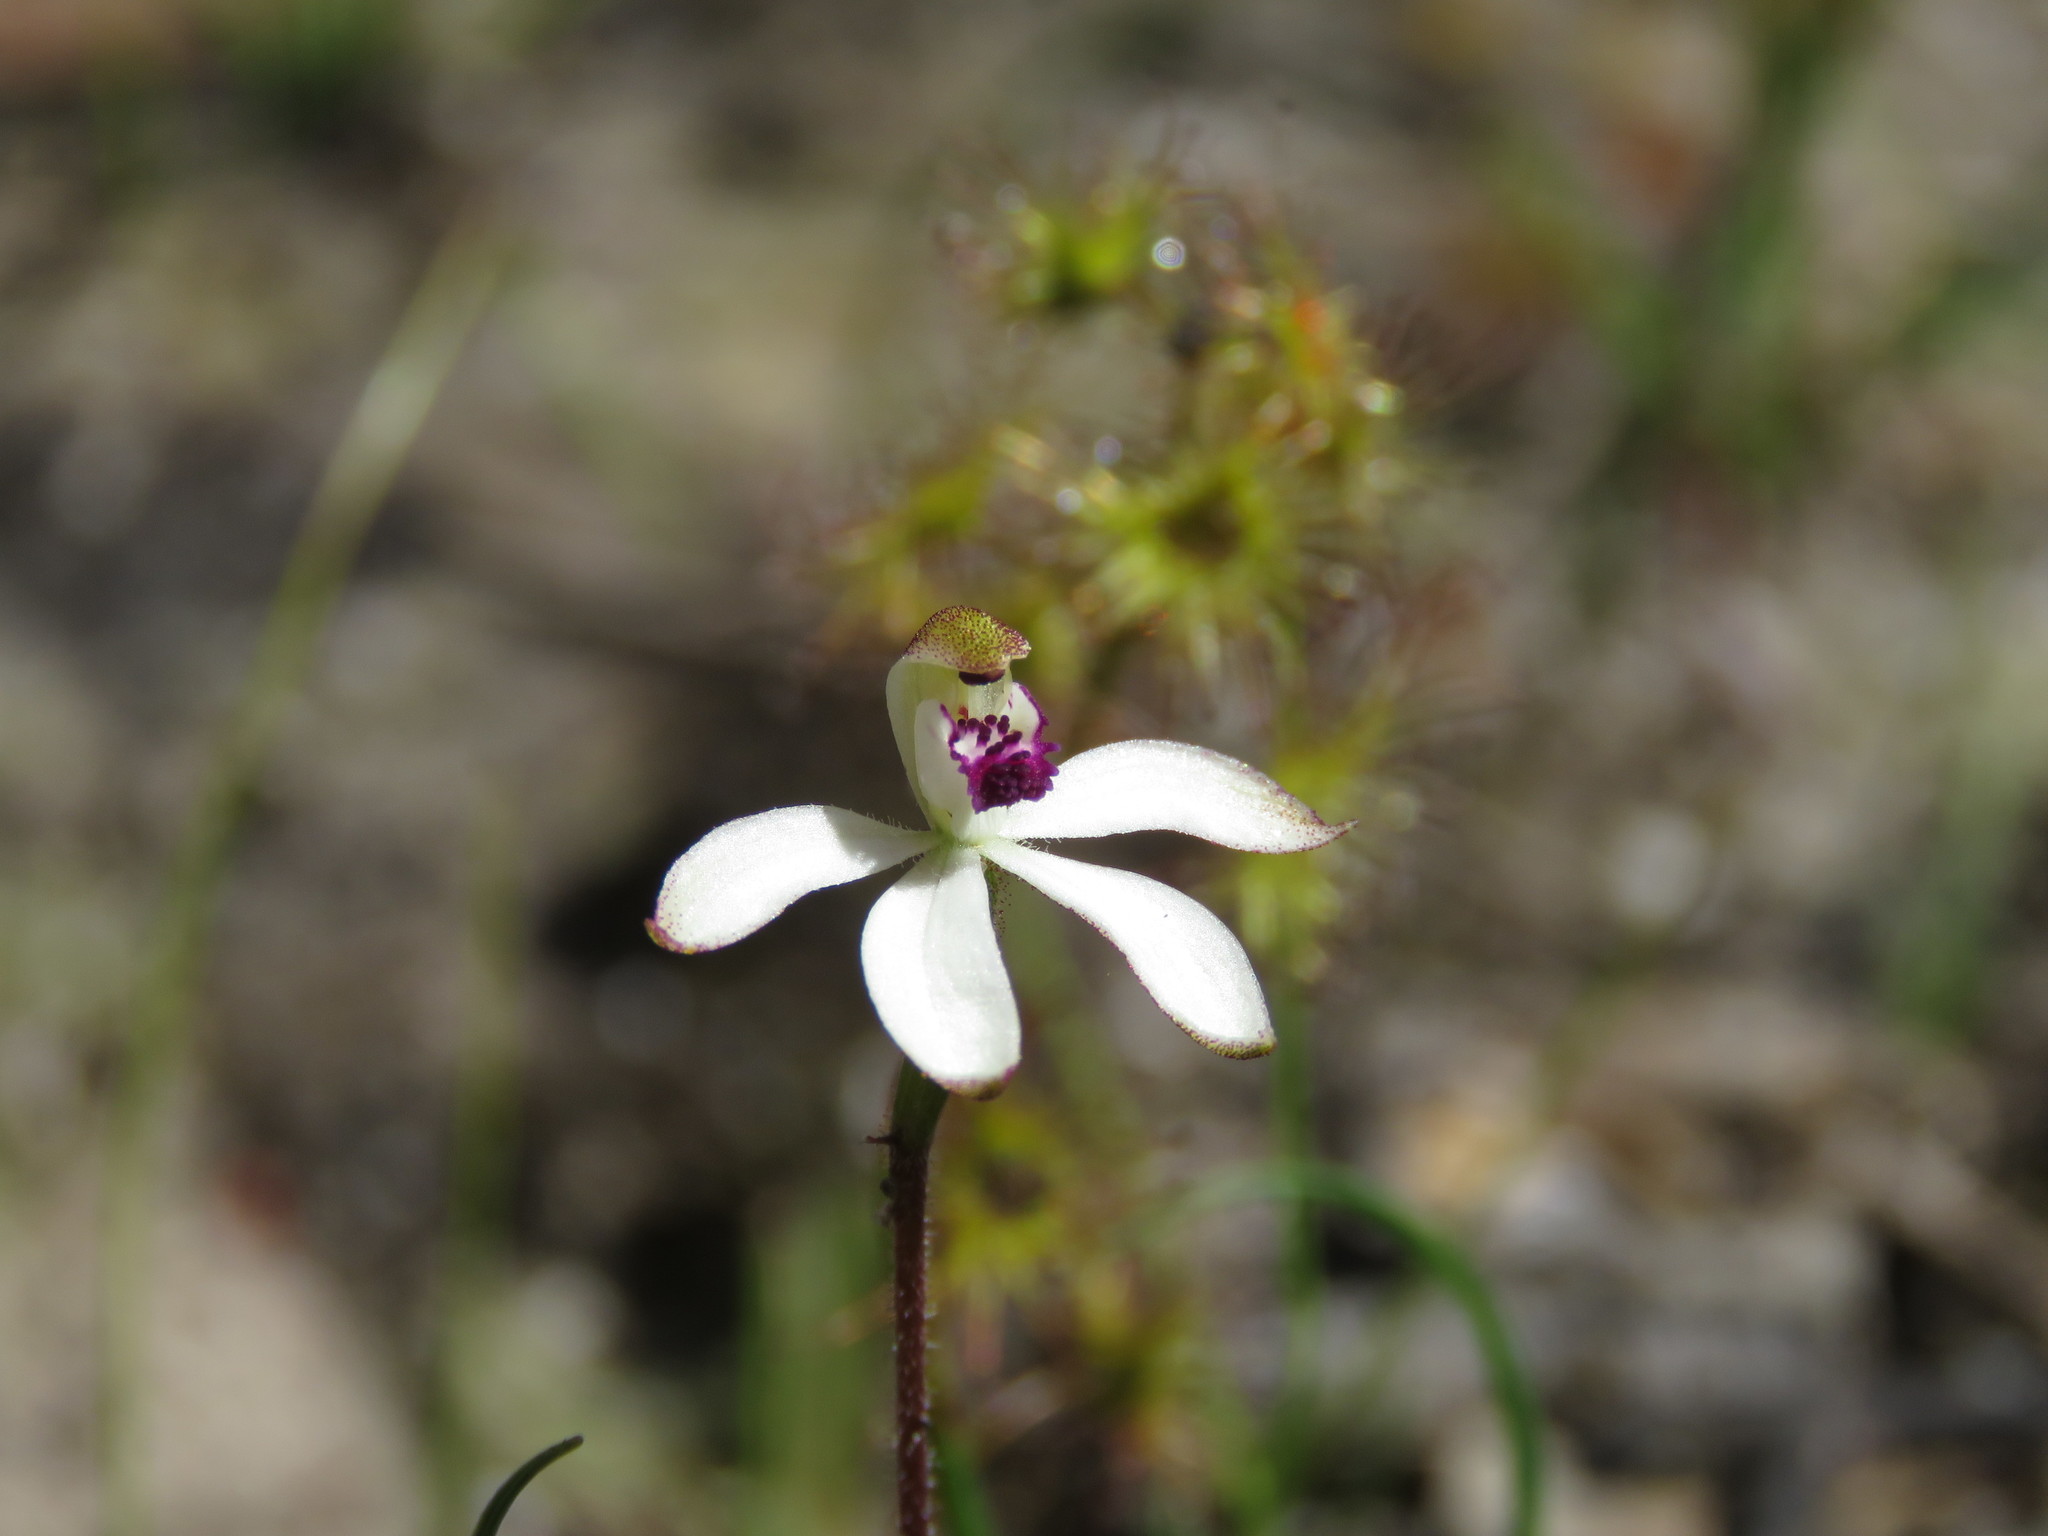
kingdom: Plantae
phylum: Tracheophyta
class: Liliopsida
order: Asparagales
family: Orchidaceae
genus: Caladenia
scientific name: Caladenia cucullata
